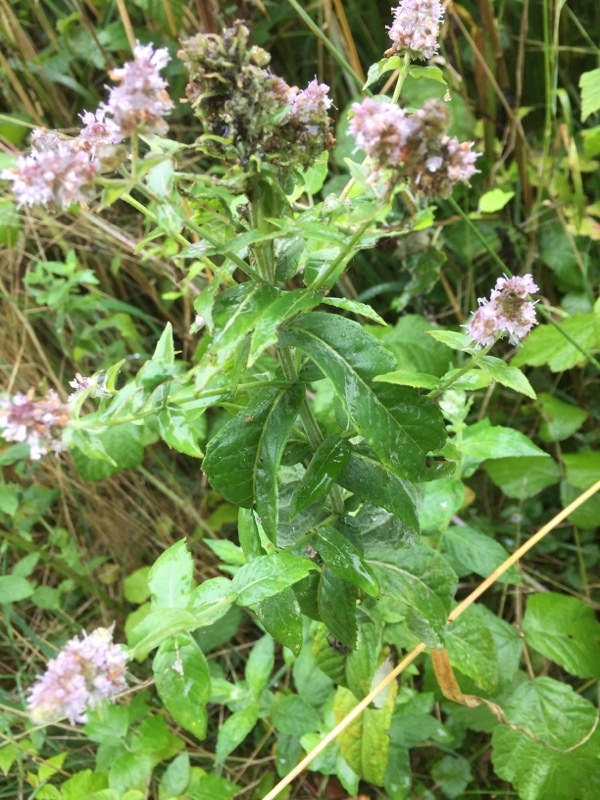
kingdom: Plantae
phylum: Tracheophyta
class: Magnoliopsida
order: Lamiales
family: Lamiaceae
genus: Mentha
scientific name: Mentha longifolia
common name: Horse mint
